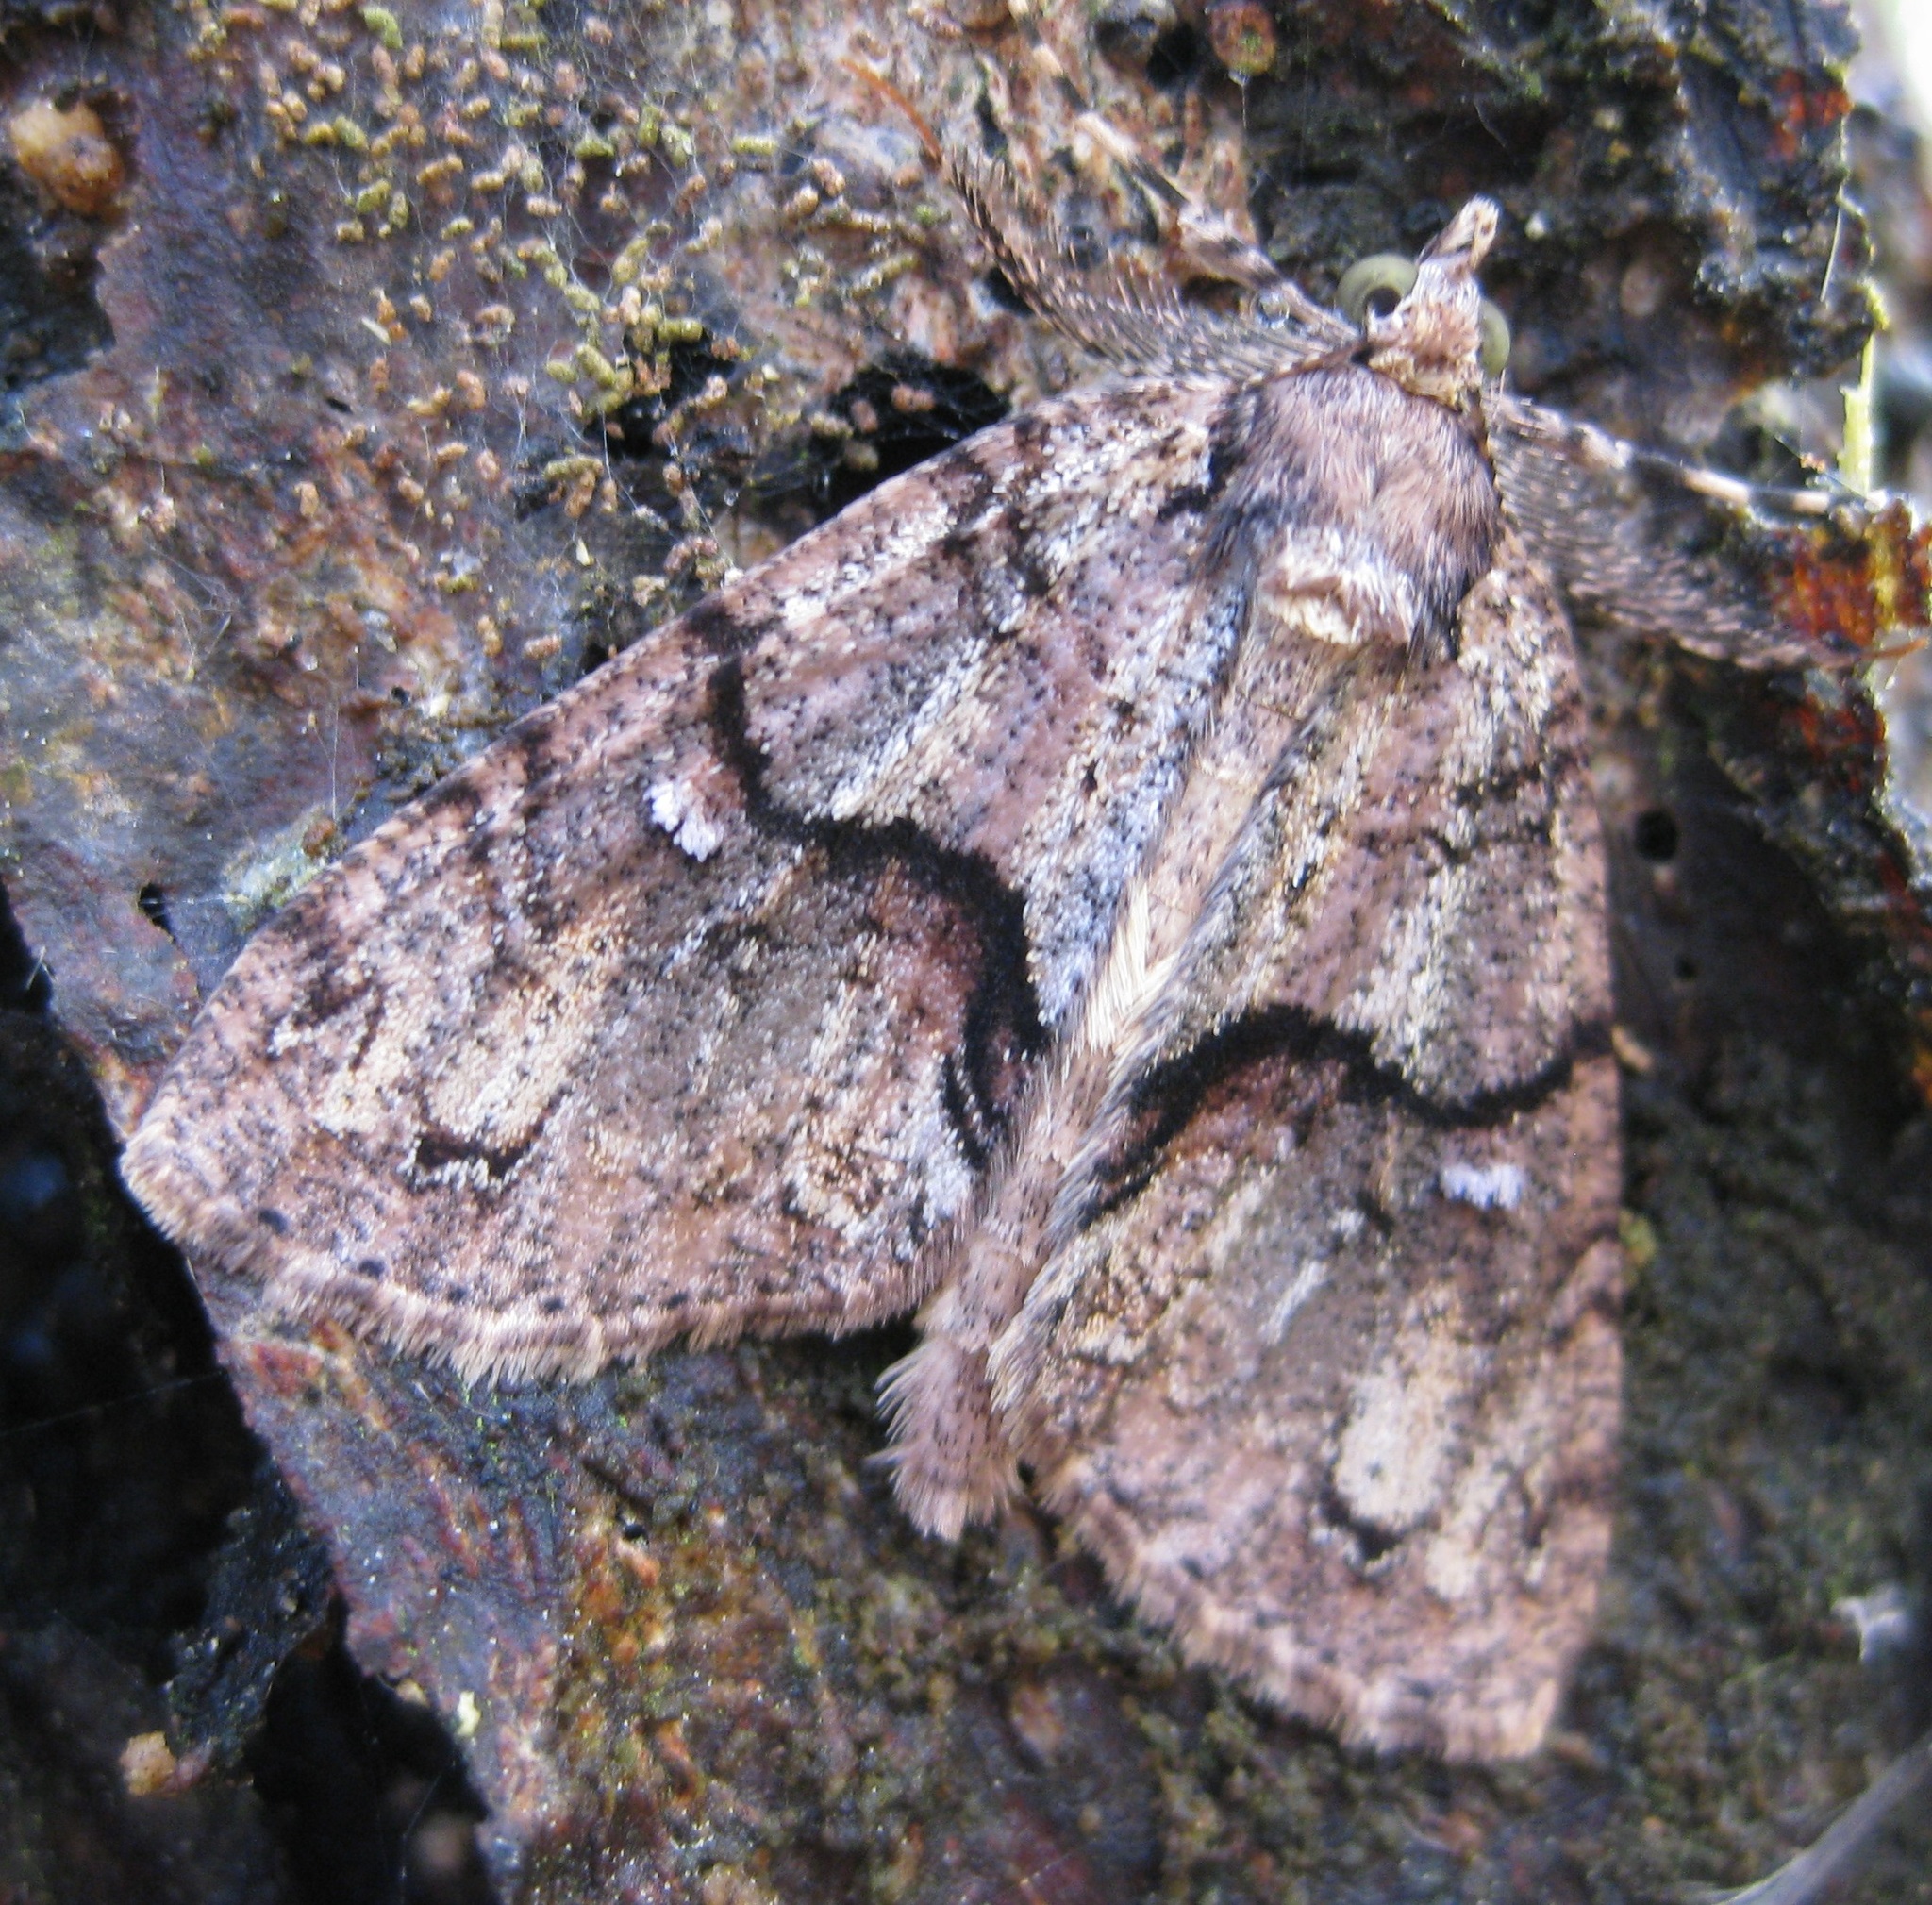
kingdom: Animalia
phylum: Arthropoda
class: Insecta
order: Lepidoptera
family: Geometridae
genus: Pseudocoremia
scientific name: Pseudocoremia suavis
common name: Common forest looper
